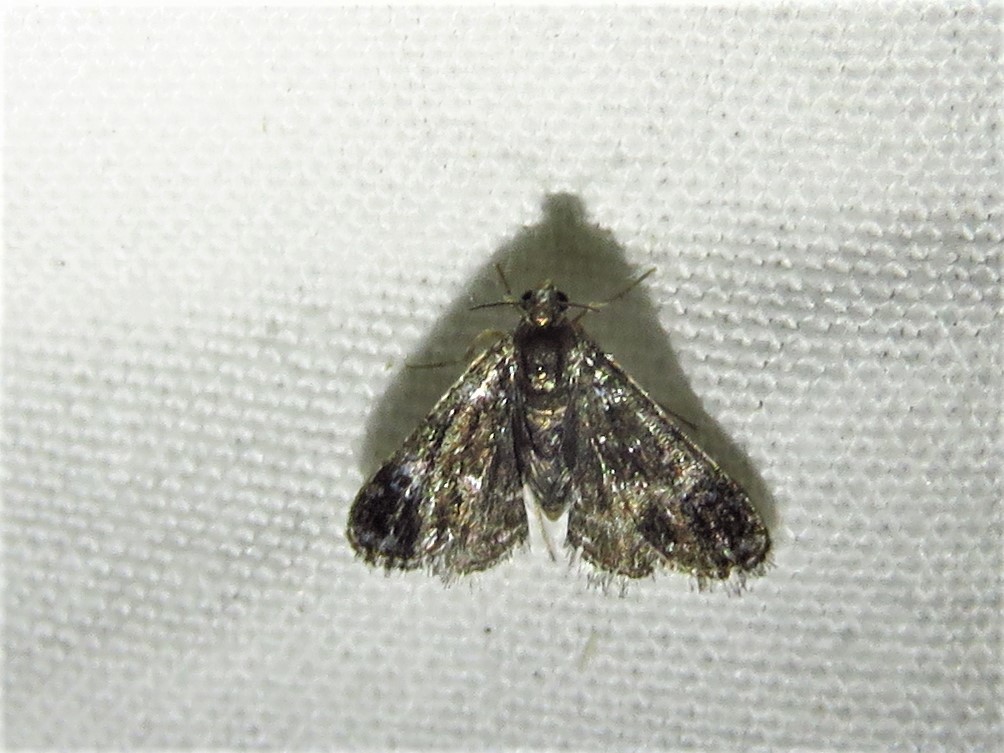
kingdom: Animalia
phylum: Arthropoda
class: Insecta
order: Lepidoptera
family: Crambidae
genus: Elophila
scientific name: Elophila tinealis
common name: Black duckweed moth
